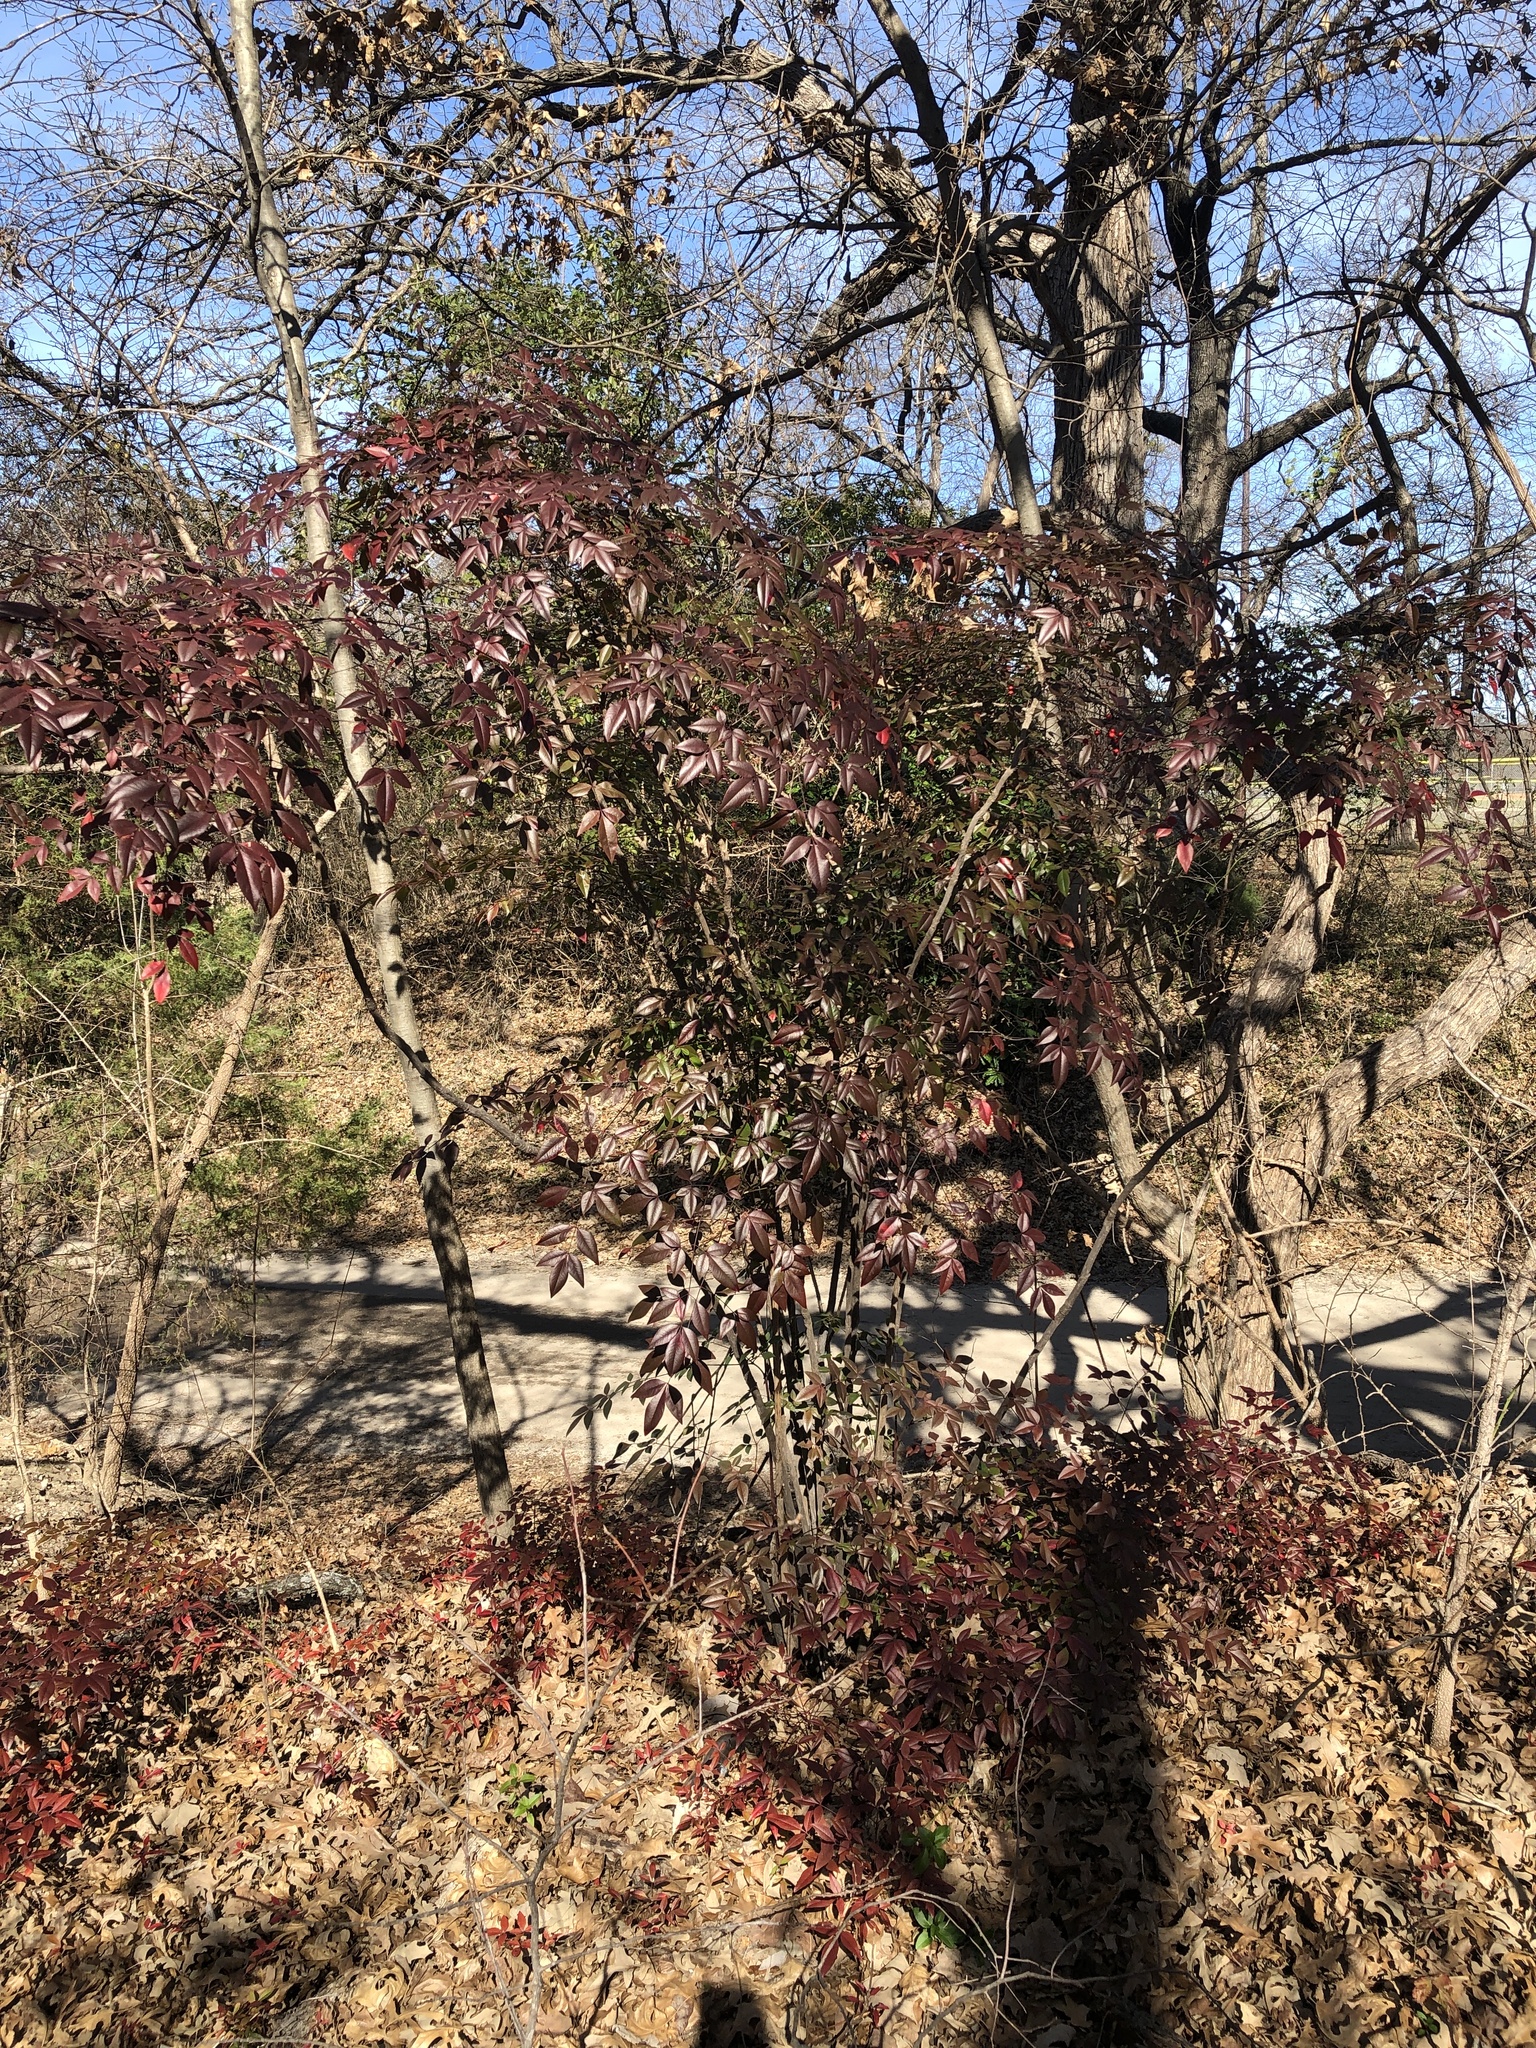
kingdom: Plantae
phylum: Tracheophyta
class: Magnoliopsida
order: Ranunculales
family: Berberidaceae
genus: Nandina
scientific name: Nandina domestica
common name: Sacred bamboo
